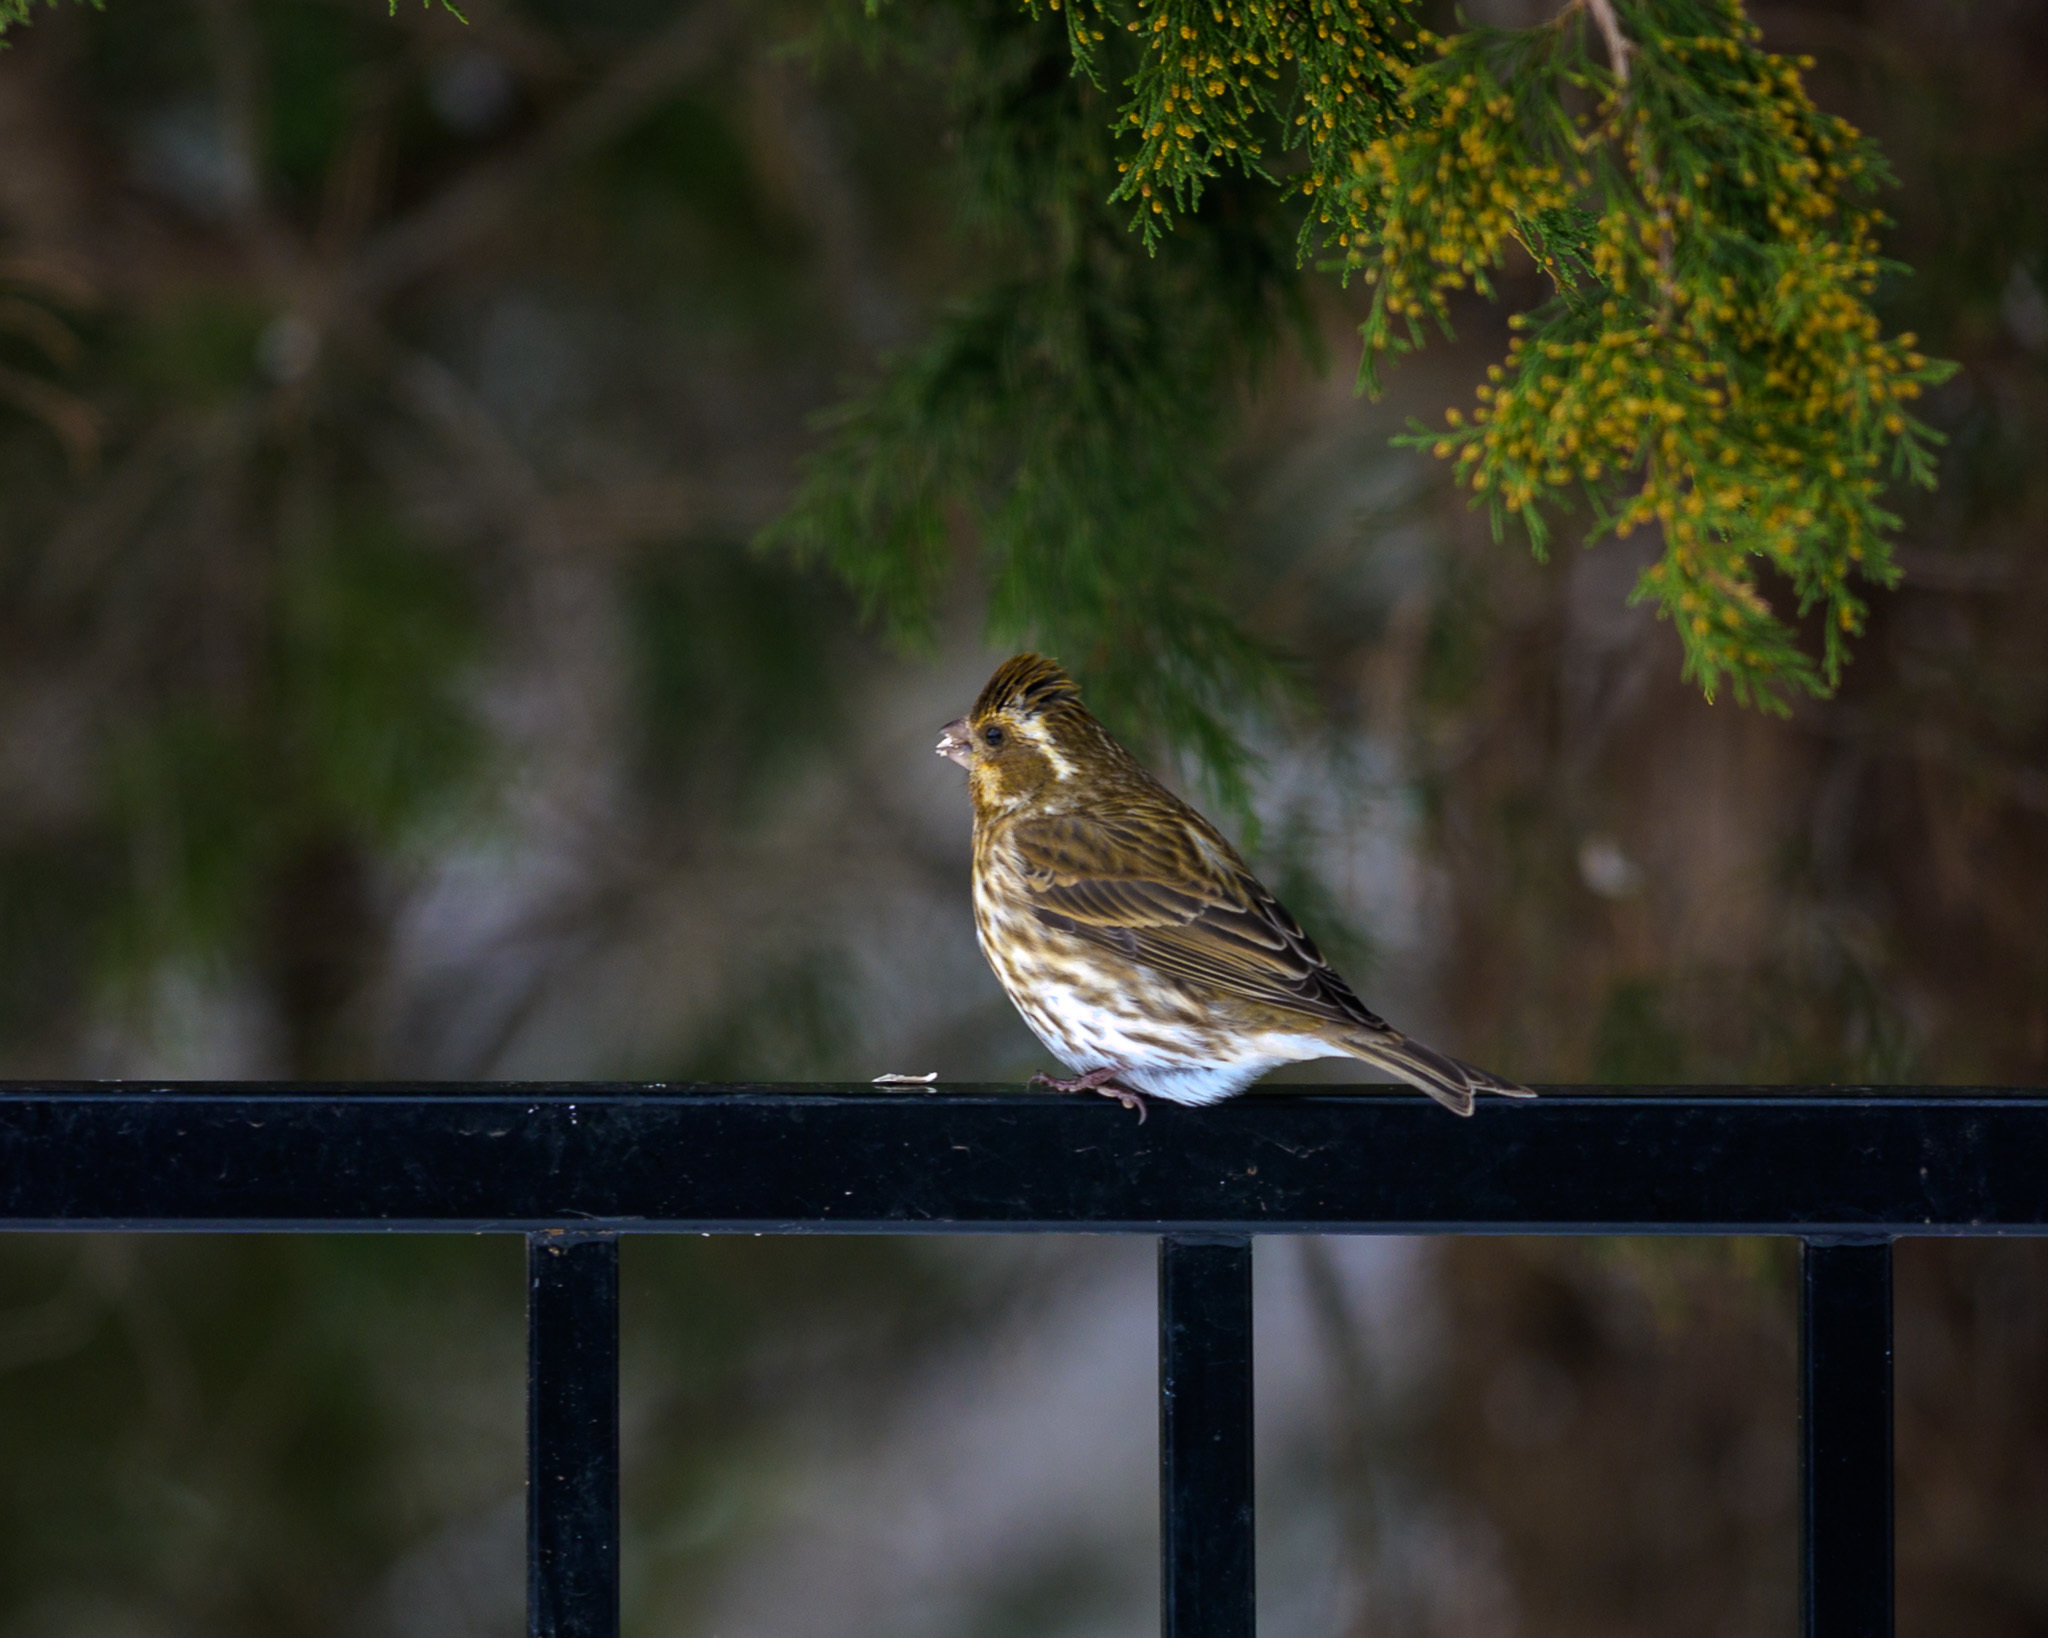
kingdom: Animalia
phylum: Chordata
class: Aves
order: Passeriformes
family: Fringillidae
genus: Haemorhous
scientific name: Haemorhous purpureus
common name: Purple finch
